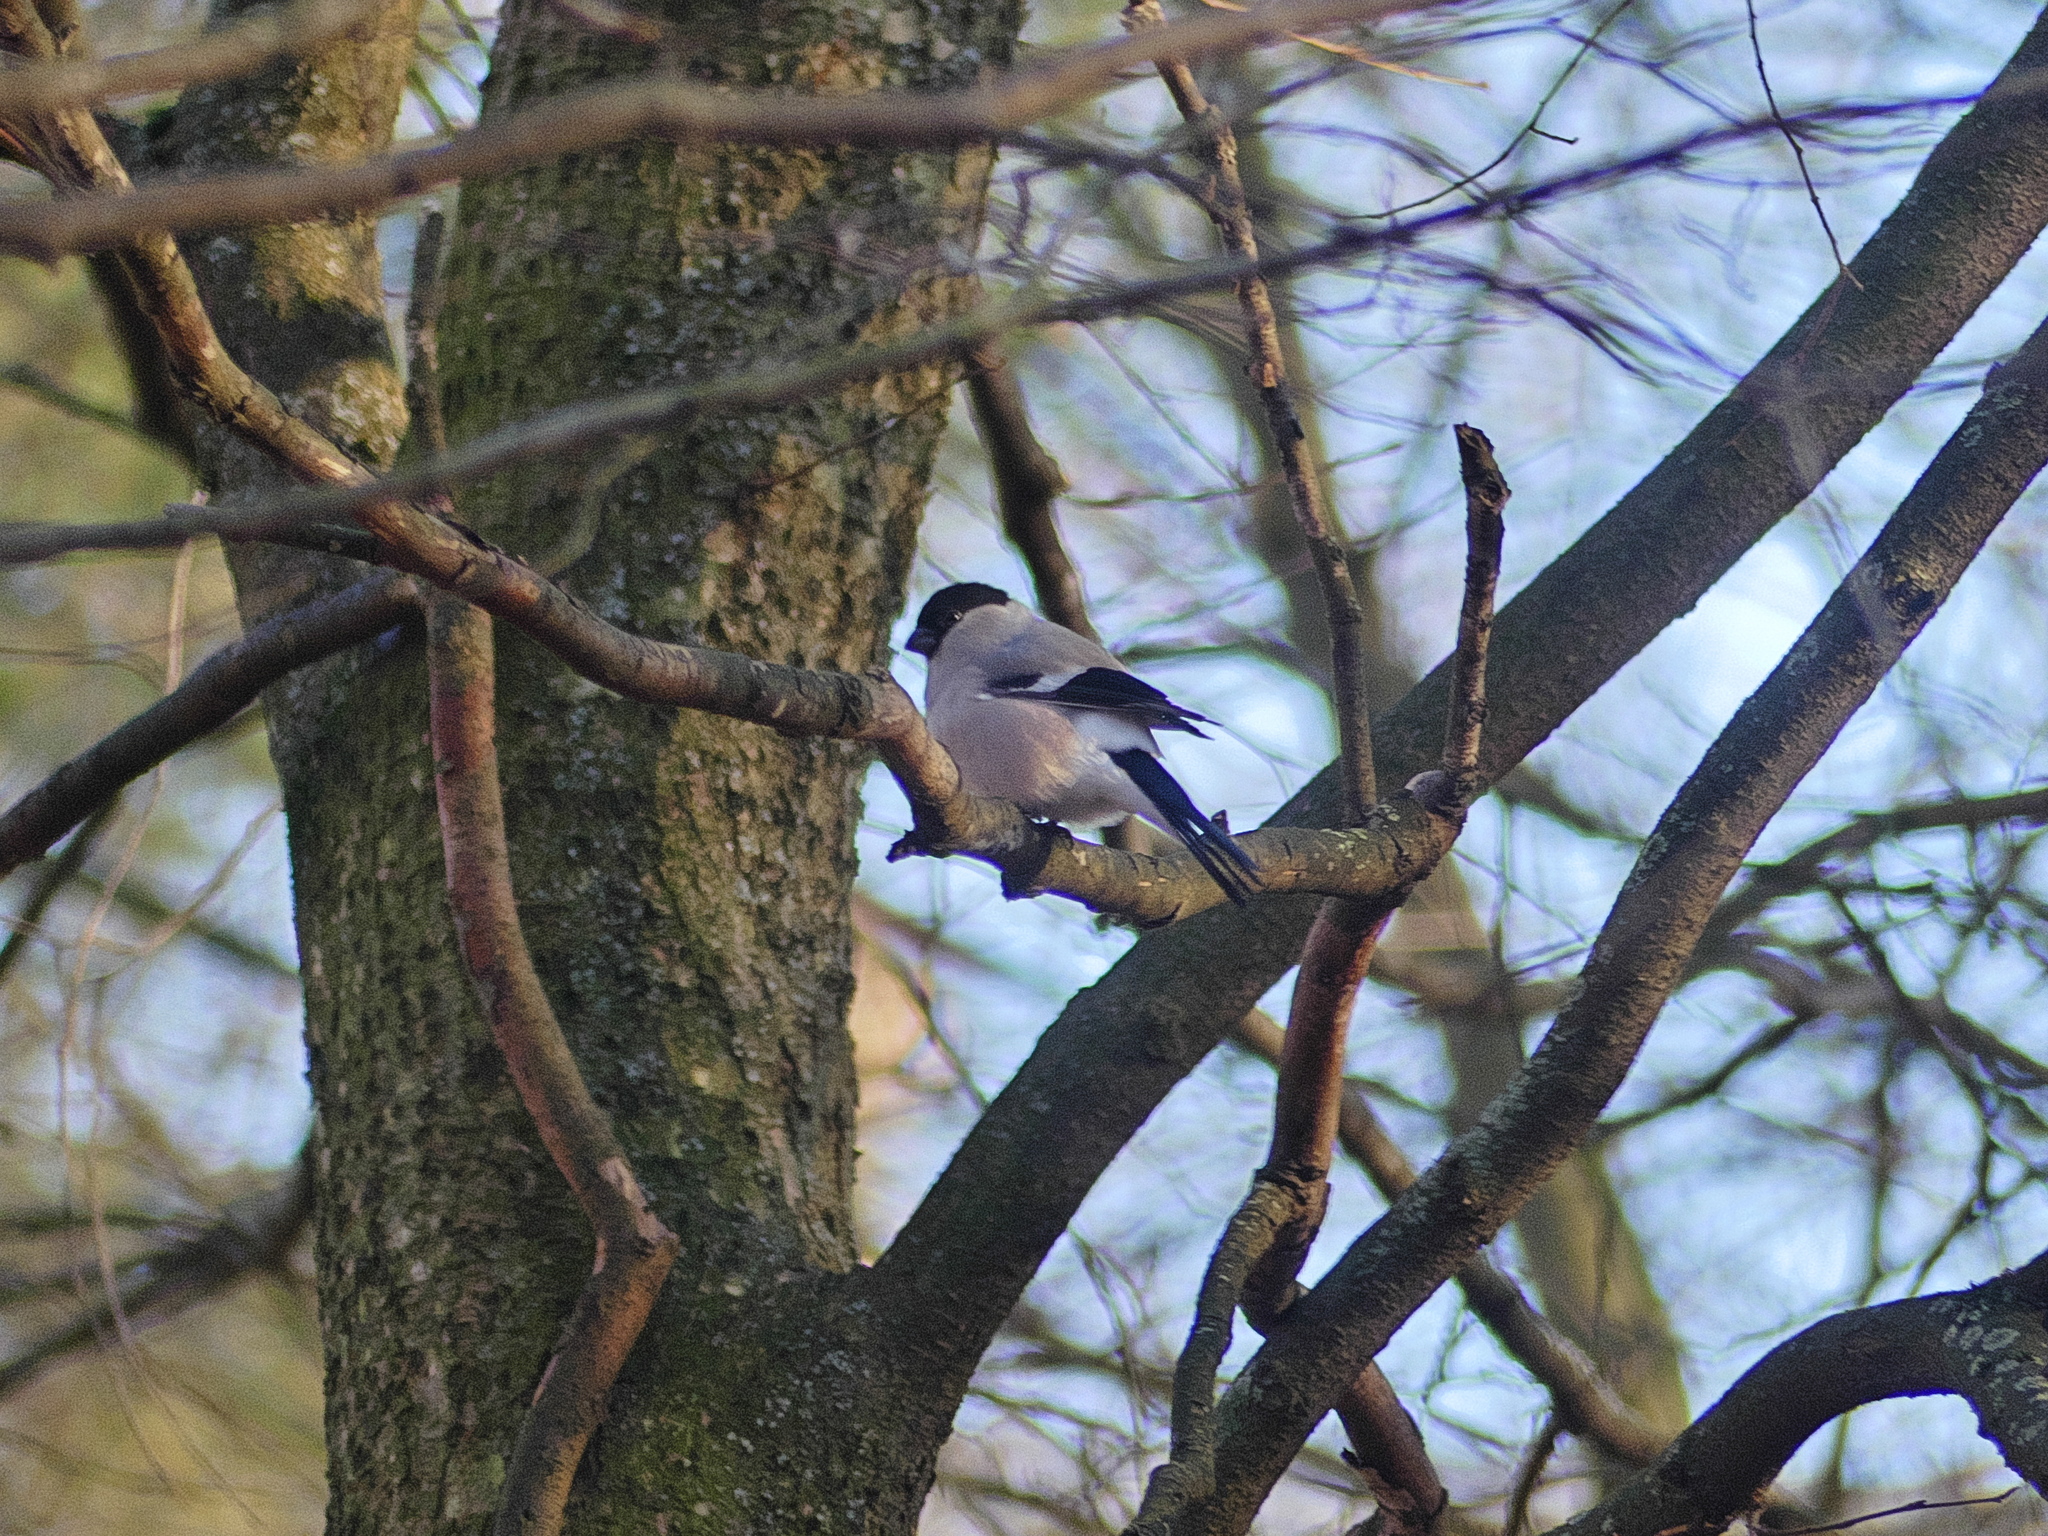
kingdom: Animalia
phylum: Chordata
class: Aves
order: Passeriformes
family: Fringillidae
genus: Pyrrhula
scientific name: Pyrrhula pyrrhula
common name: Eurasian bullfinch
